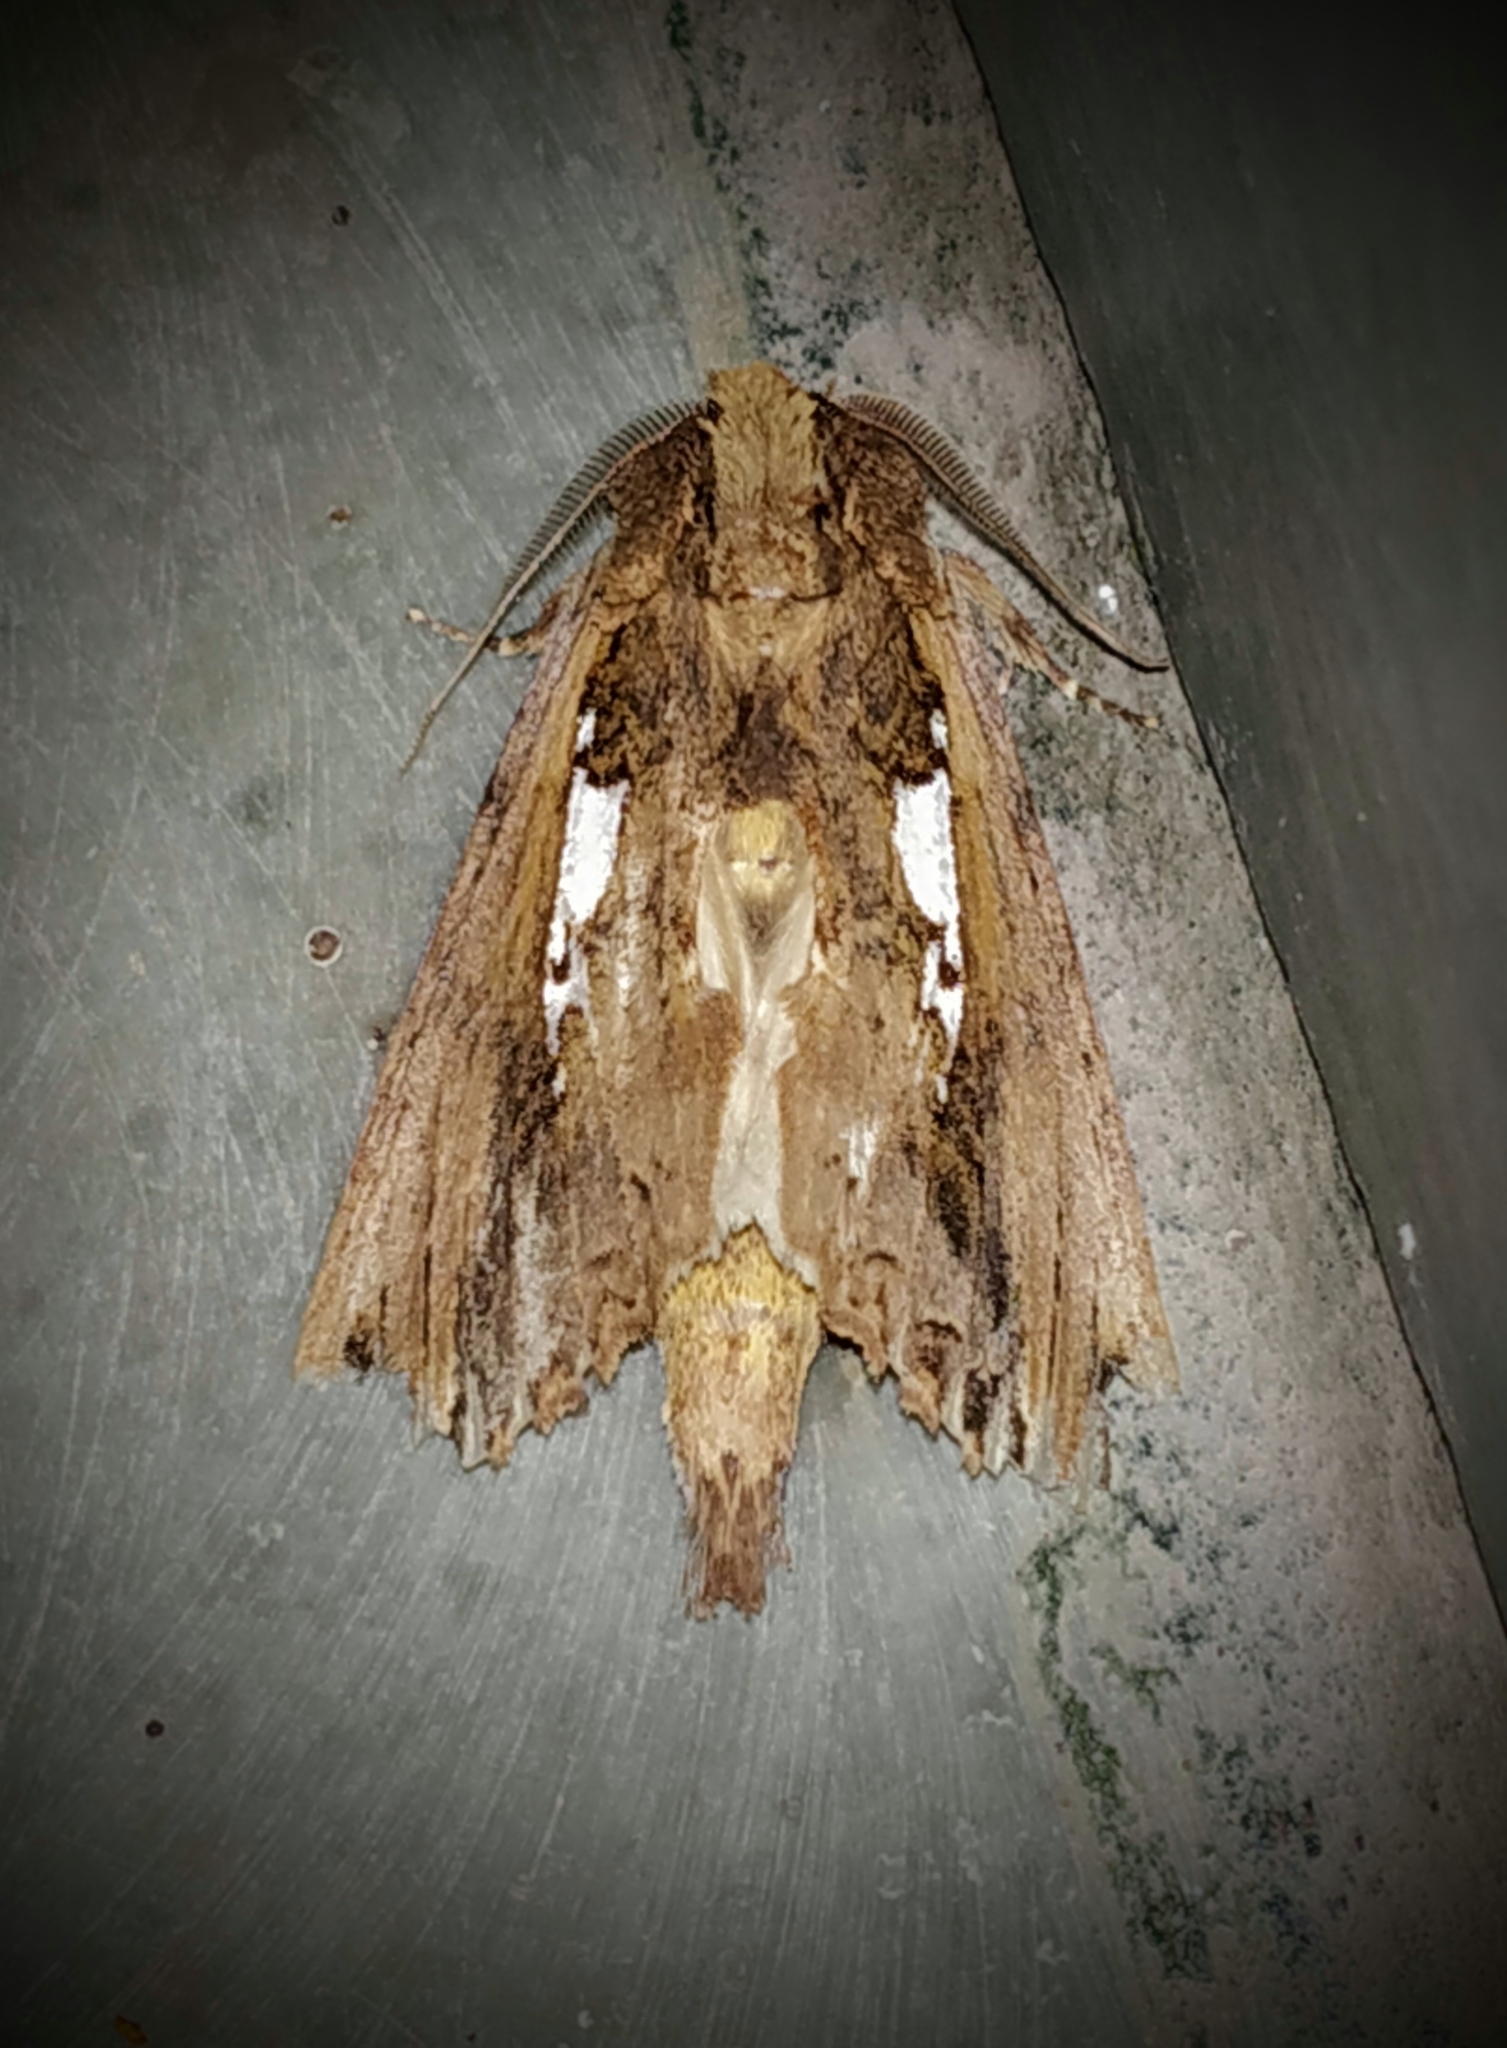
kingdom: Animalia
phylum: Arthropoda
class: Insecta
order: Lepidoptera
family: Notodontidae
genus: Spatalia
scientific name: Spatalia
